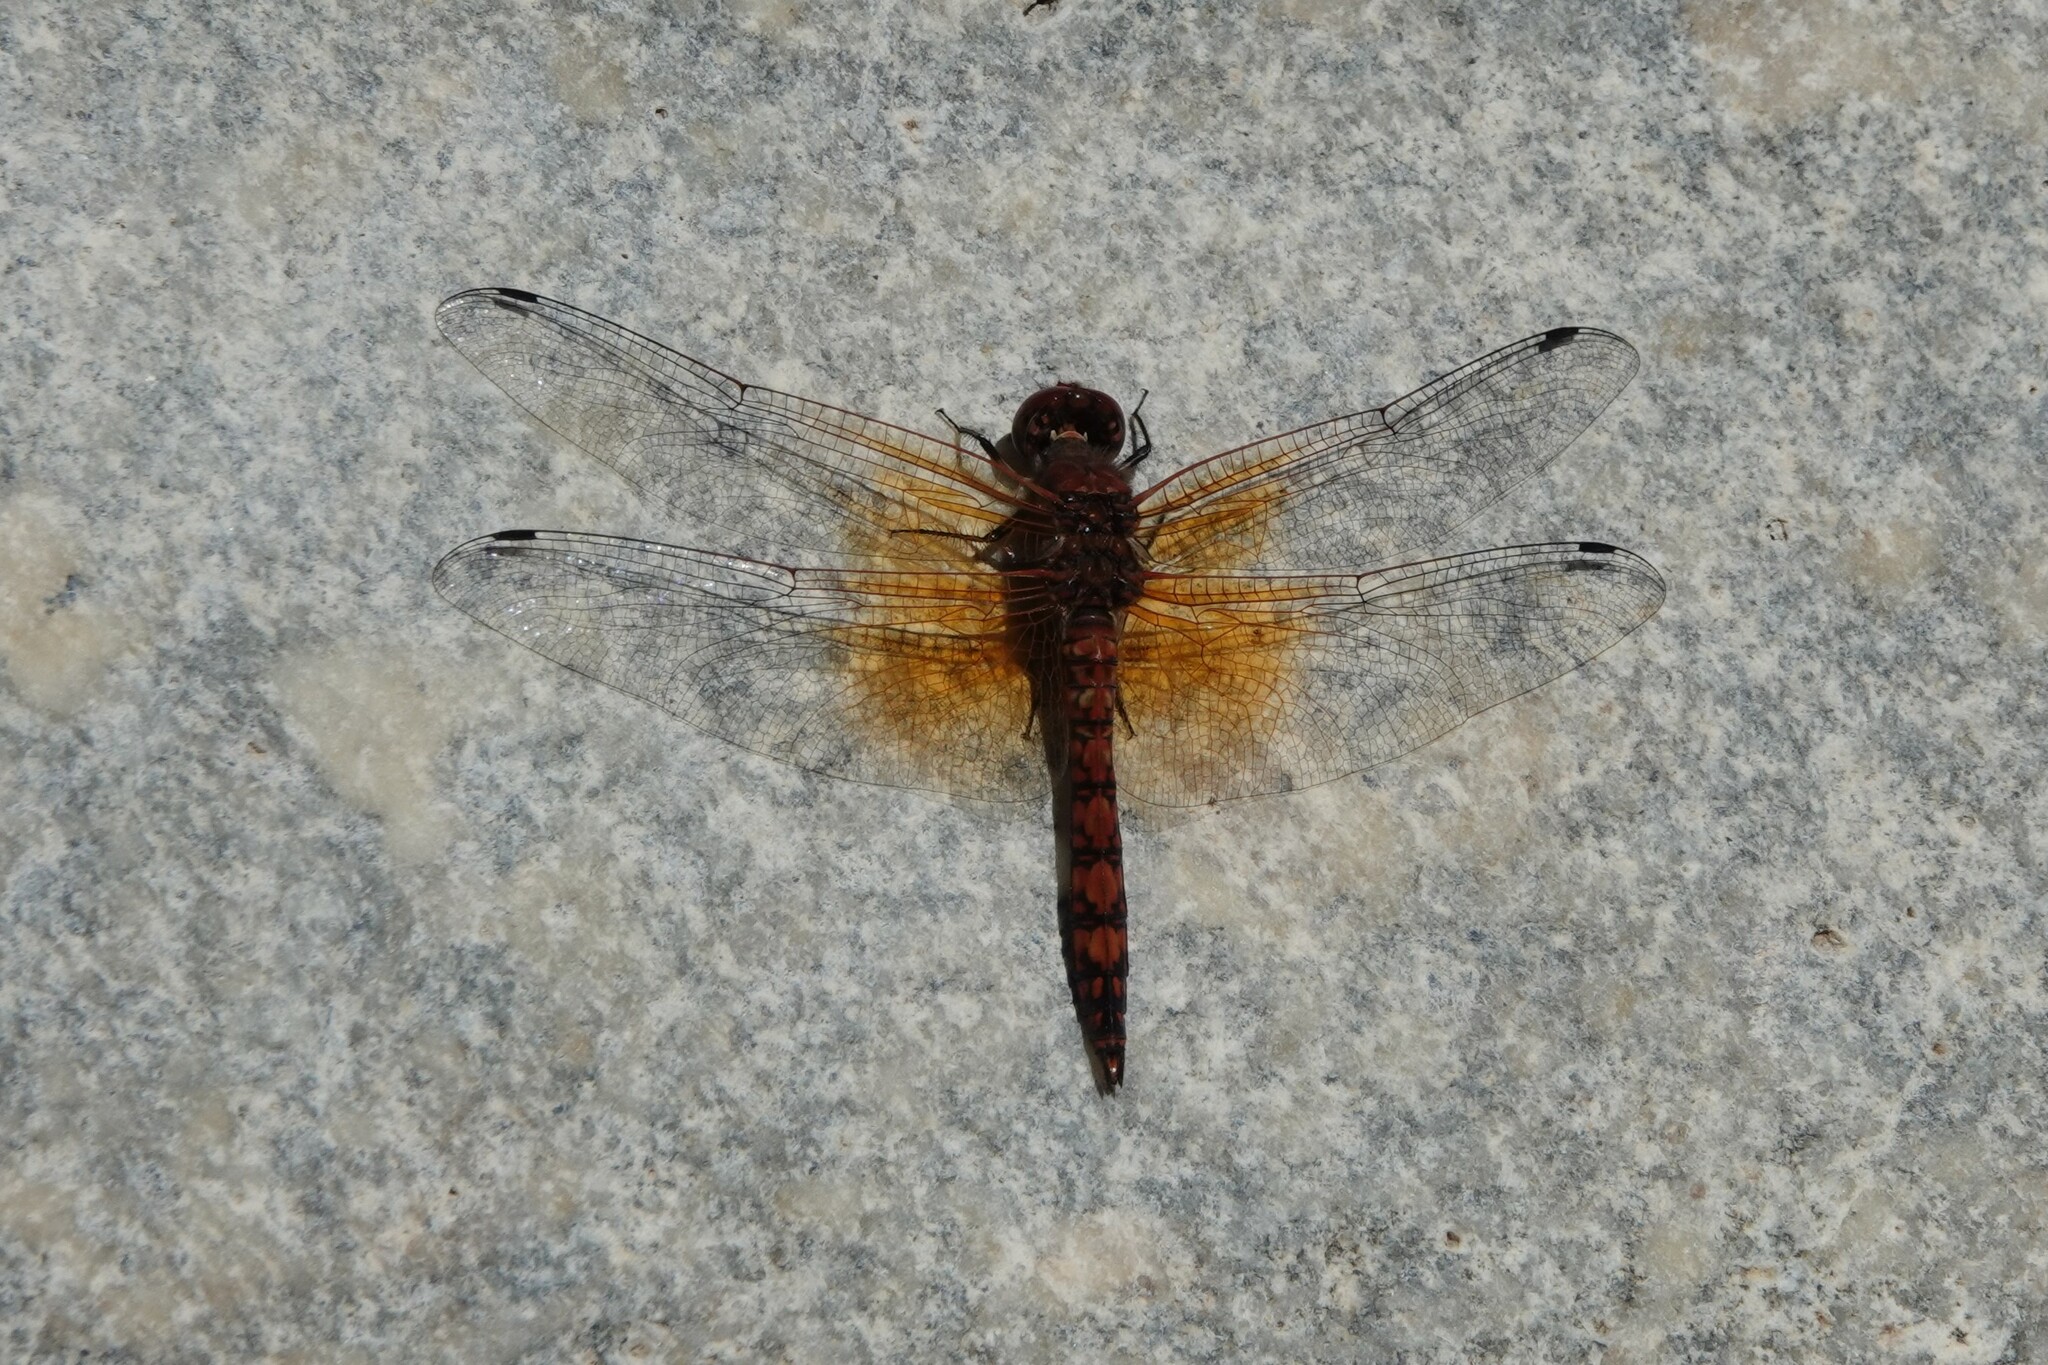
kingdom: Animalia
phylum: Arthropoda
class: Insecta
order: Odonata
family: Libellulidae
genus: Paltothemis
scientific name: Paltothemis lineatipes
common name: Red rock skimmer
